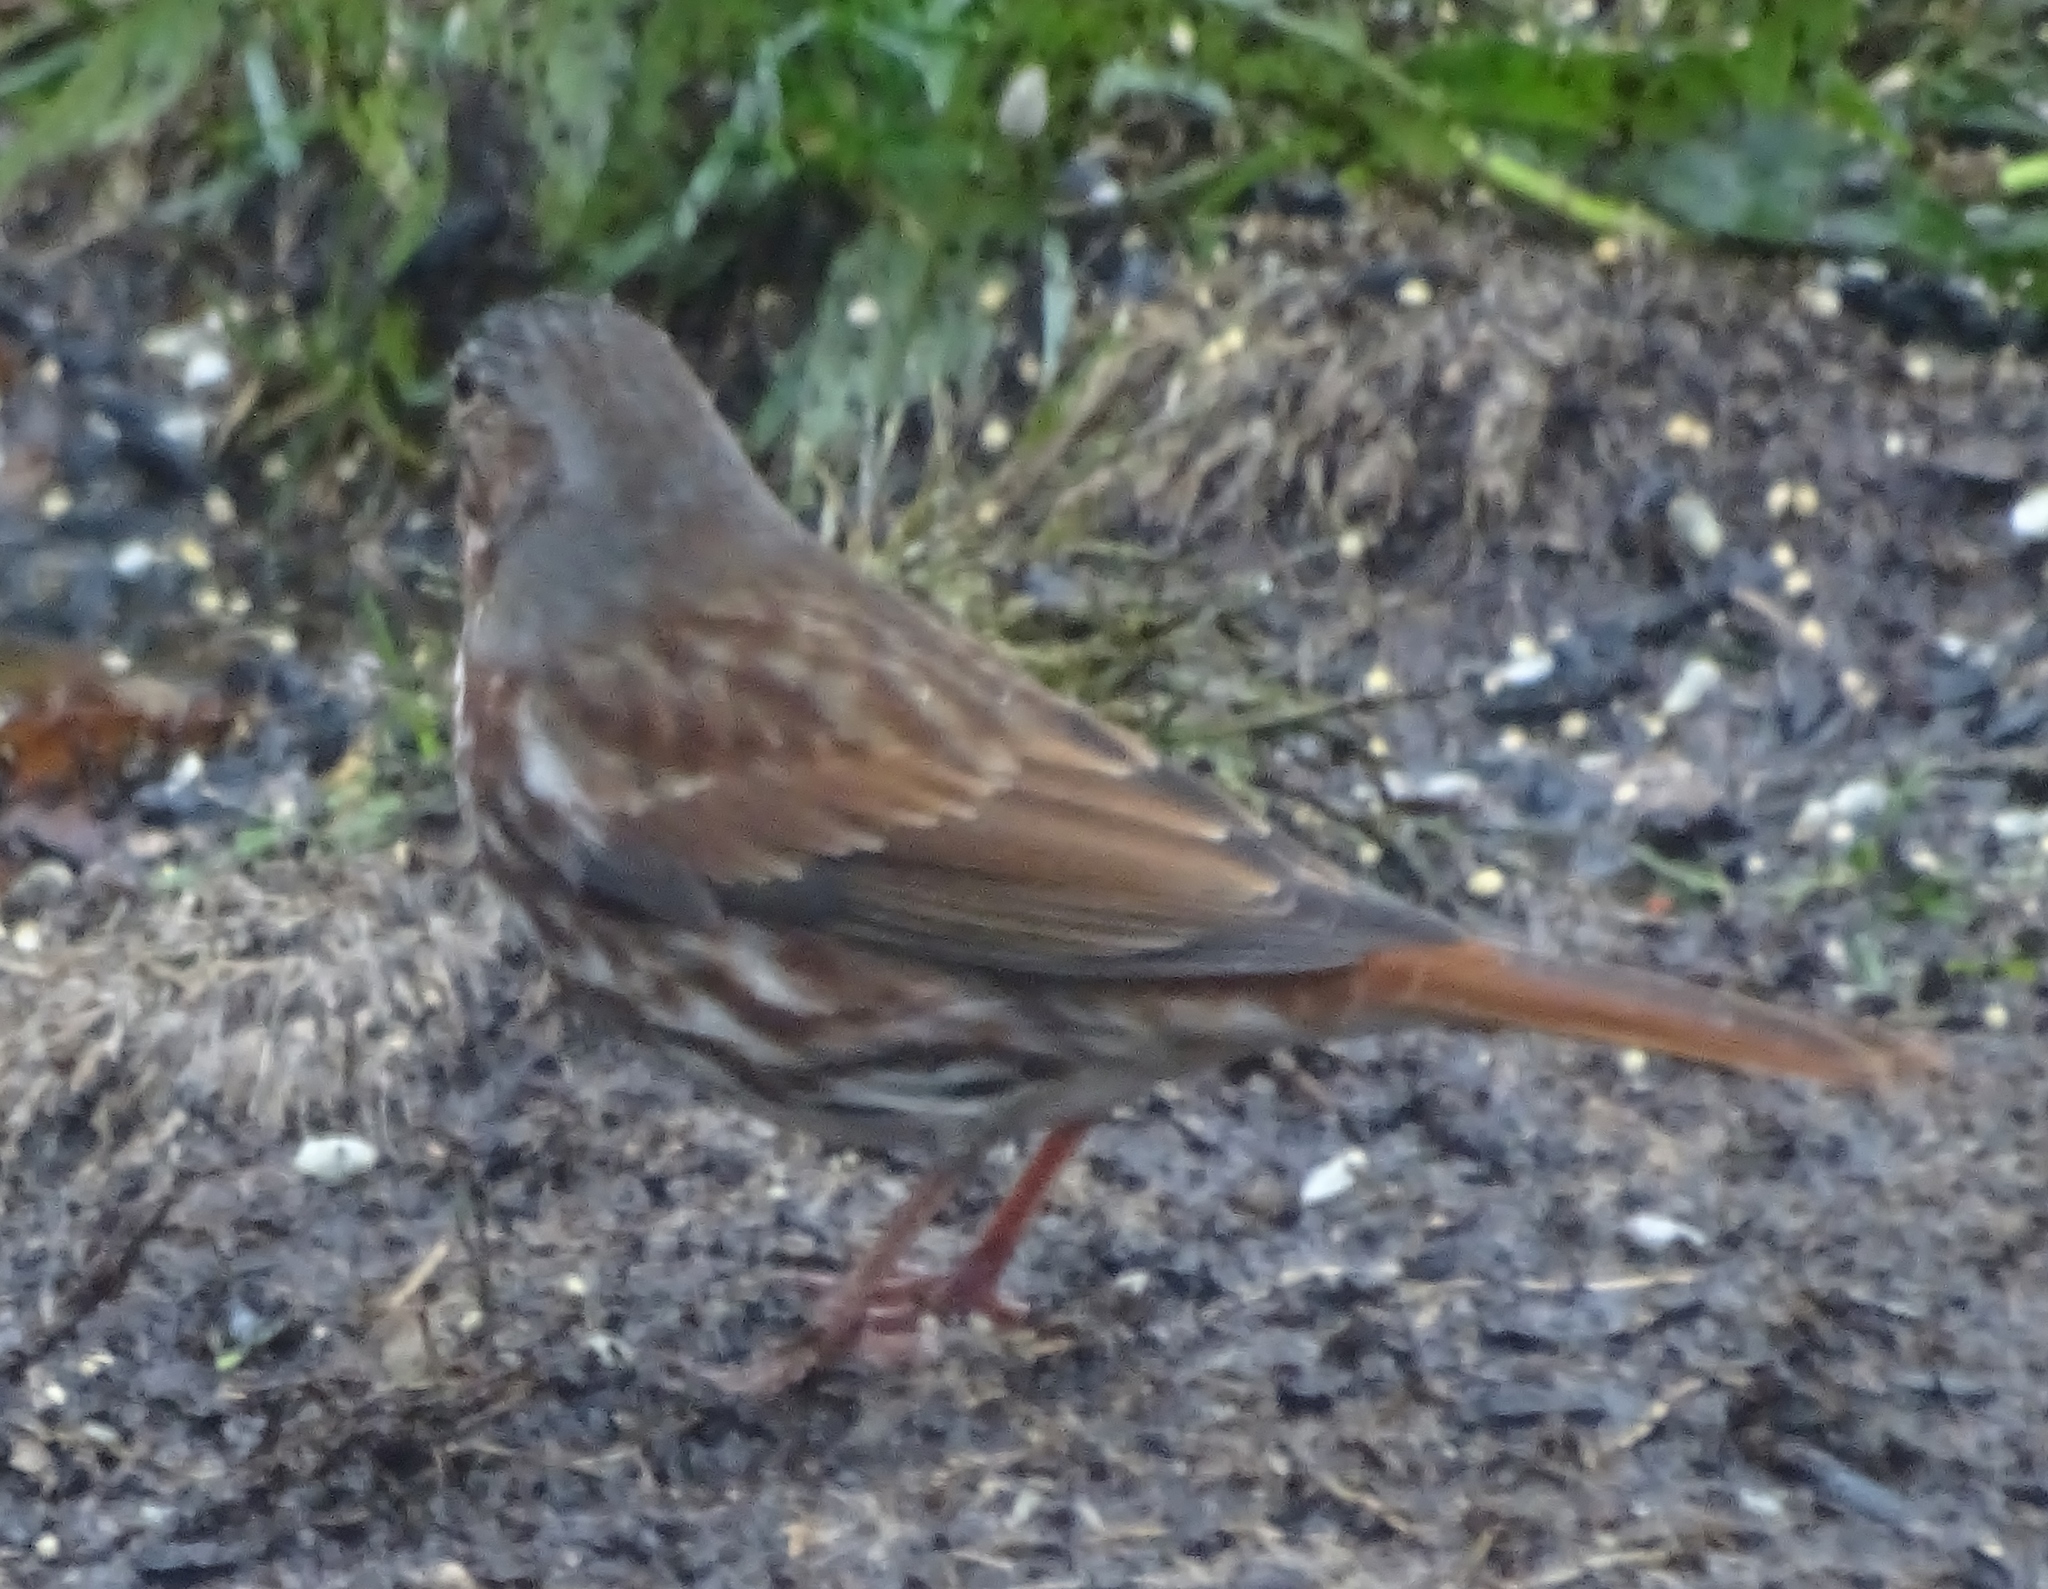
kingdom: Animalia
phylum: Chordata
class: Aves
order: Passeriformes
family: Passerellidae
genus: Passerella
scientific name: Passerella iliaca
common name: Fox sparrow
